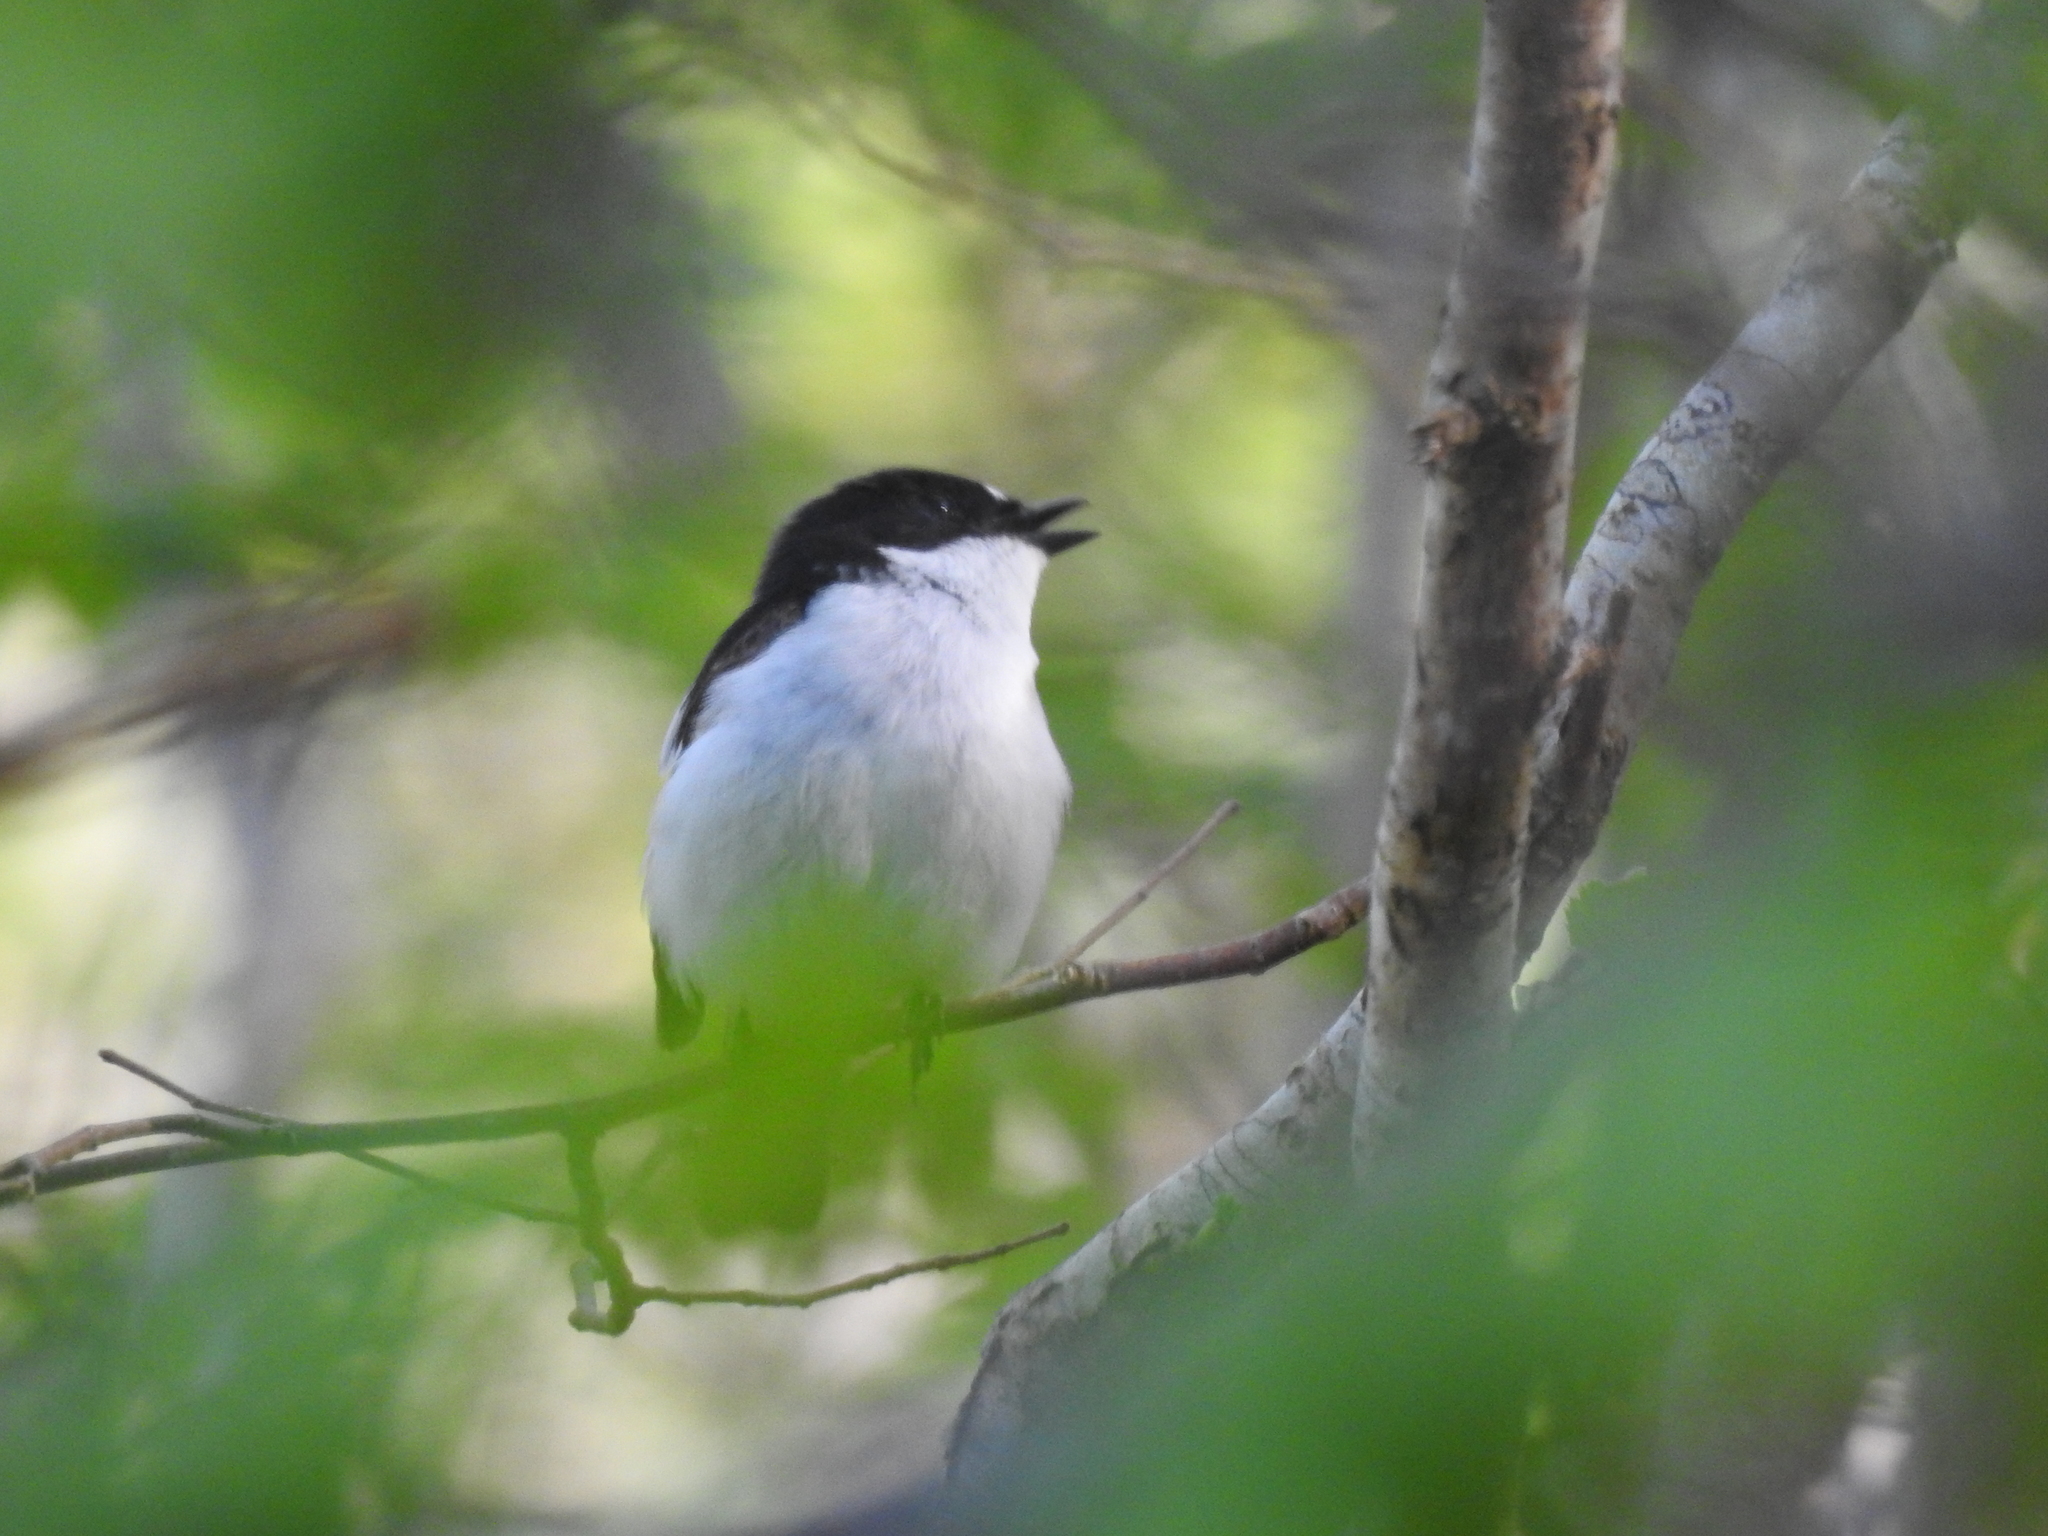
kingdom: Animalia
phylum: Chordata
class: Aves
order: Passeriformes
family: Muscicapidae
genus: Ficedula
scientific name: Ficedula hypoleuca
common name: European pied flycatcher
